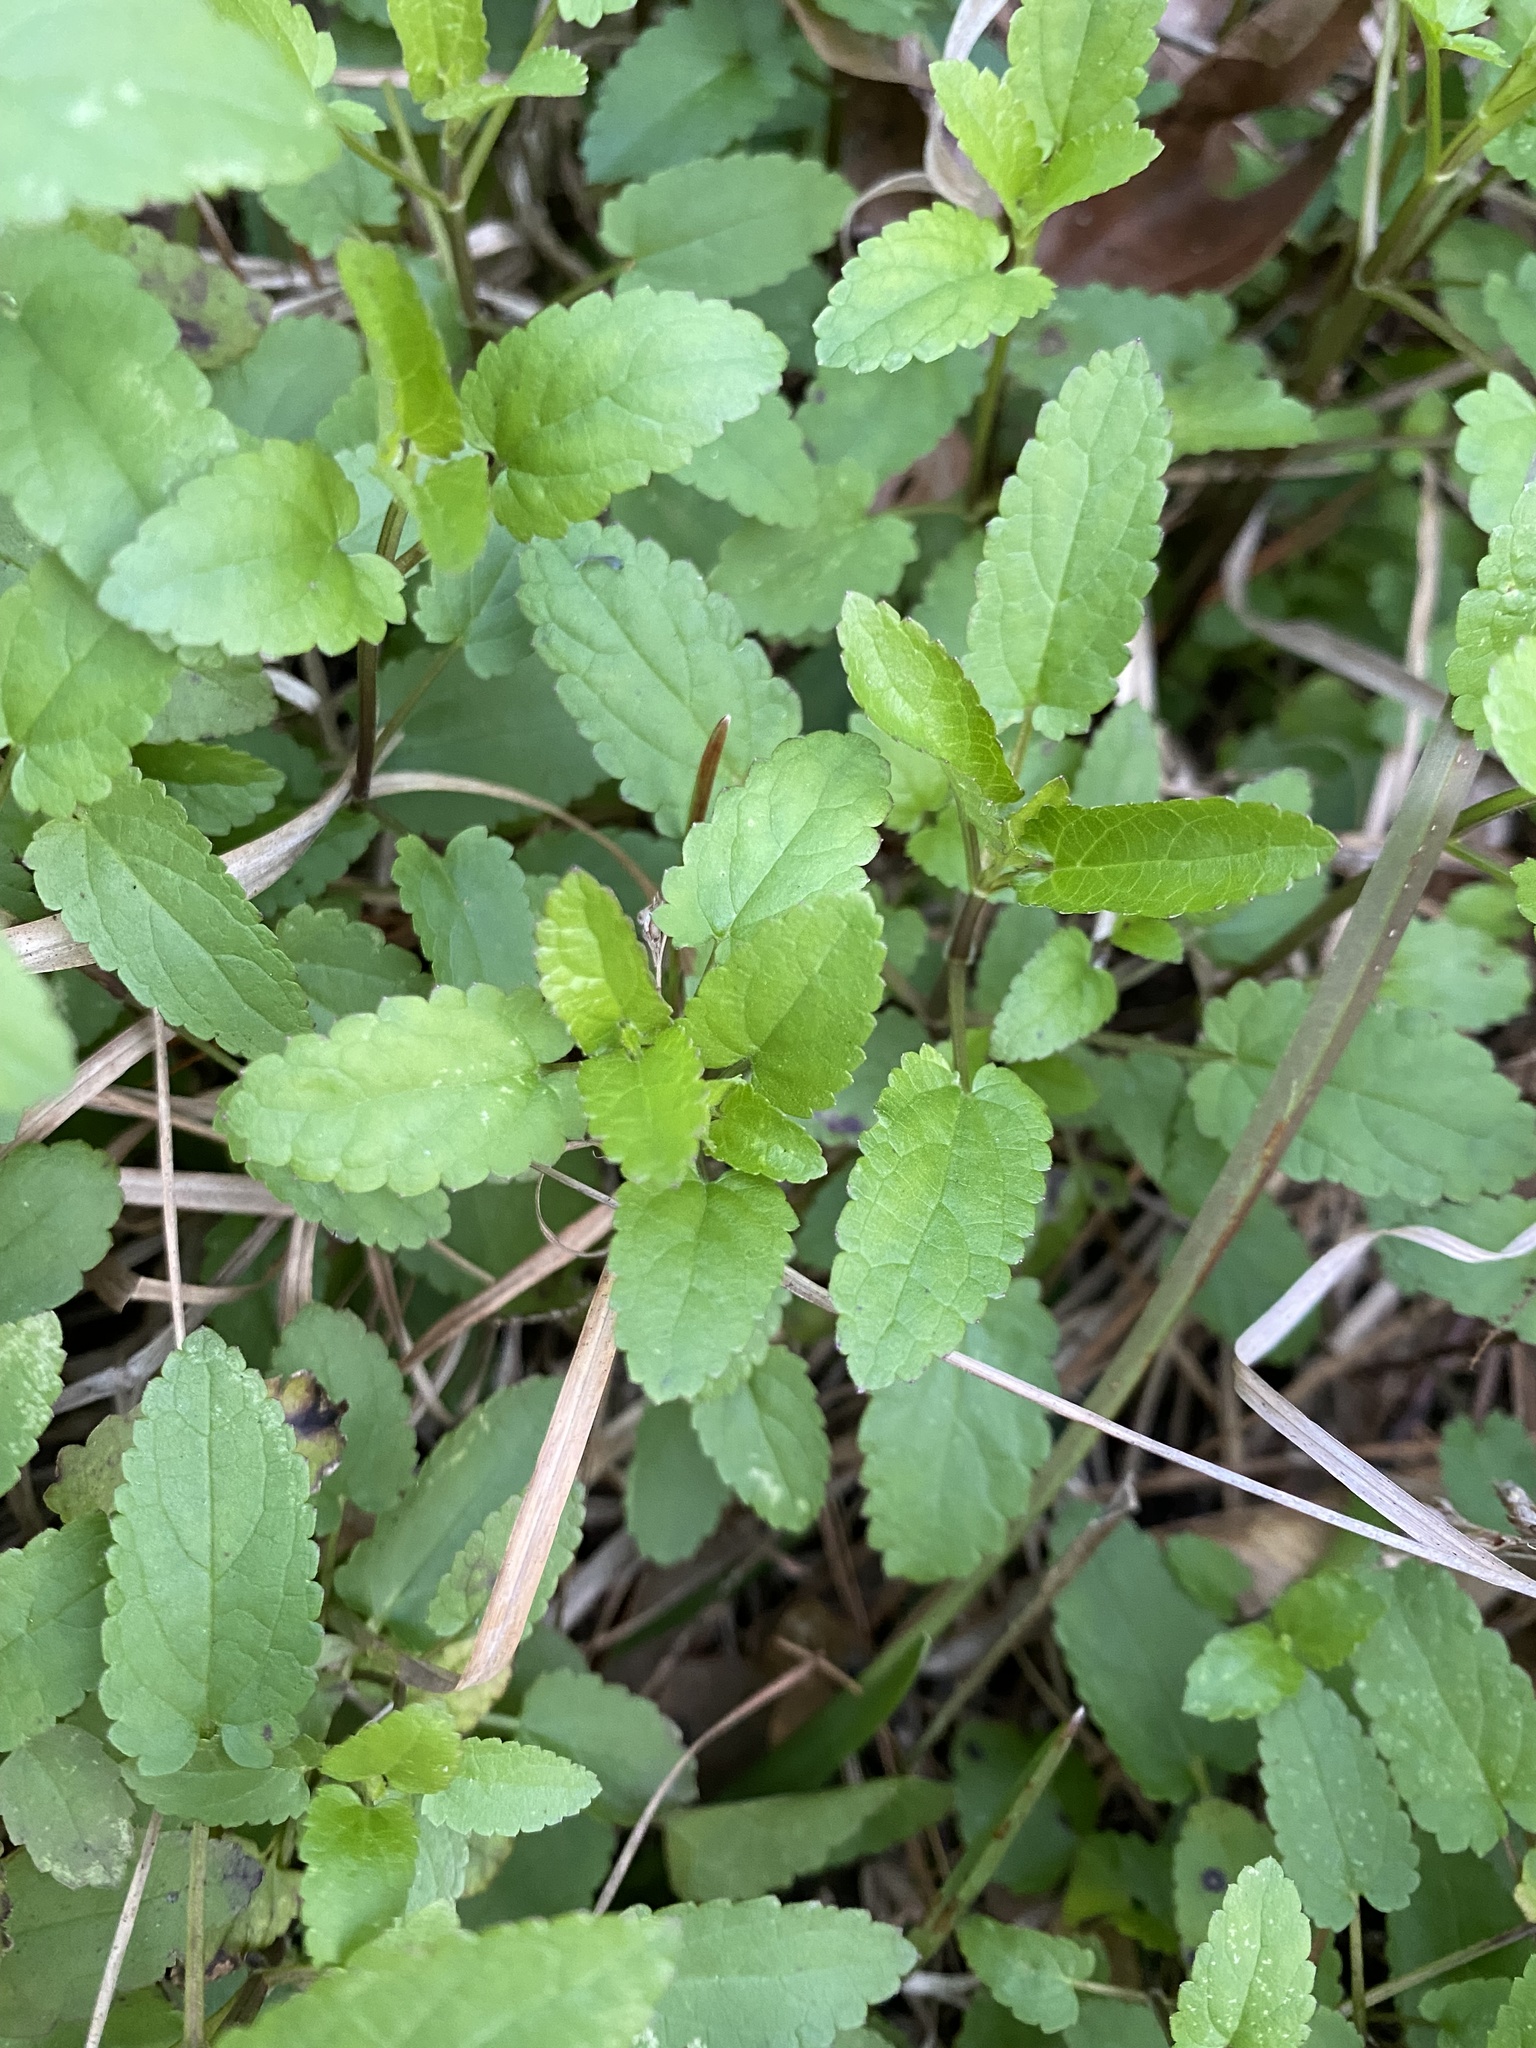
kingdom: Plantae
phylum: Tracheophyta
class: Magnoliopsida
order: Lamiales
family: Lamiaceae
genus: Stachys
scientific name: Stachys floridana
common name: Florida betony
